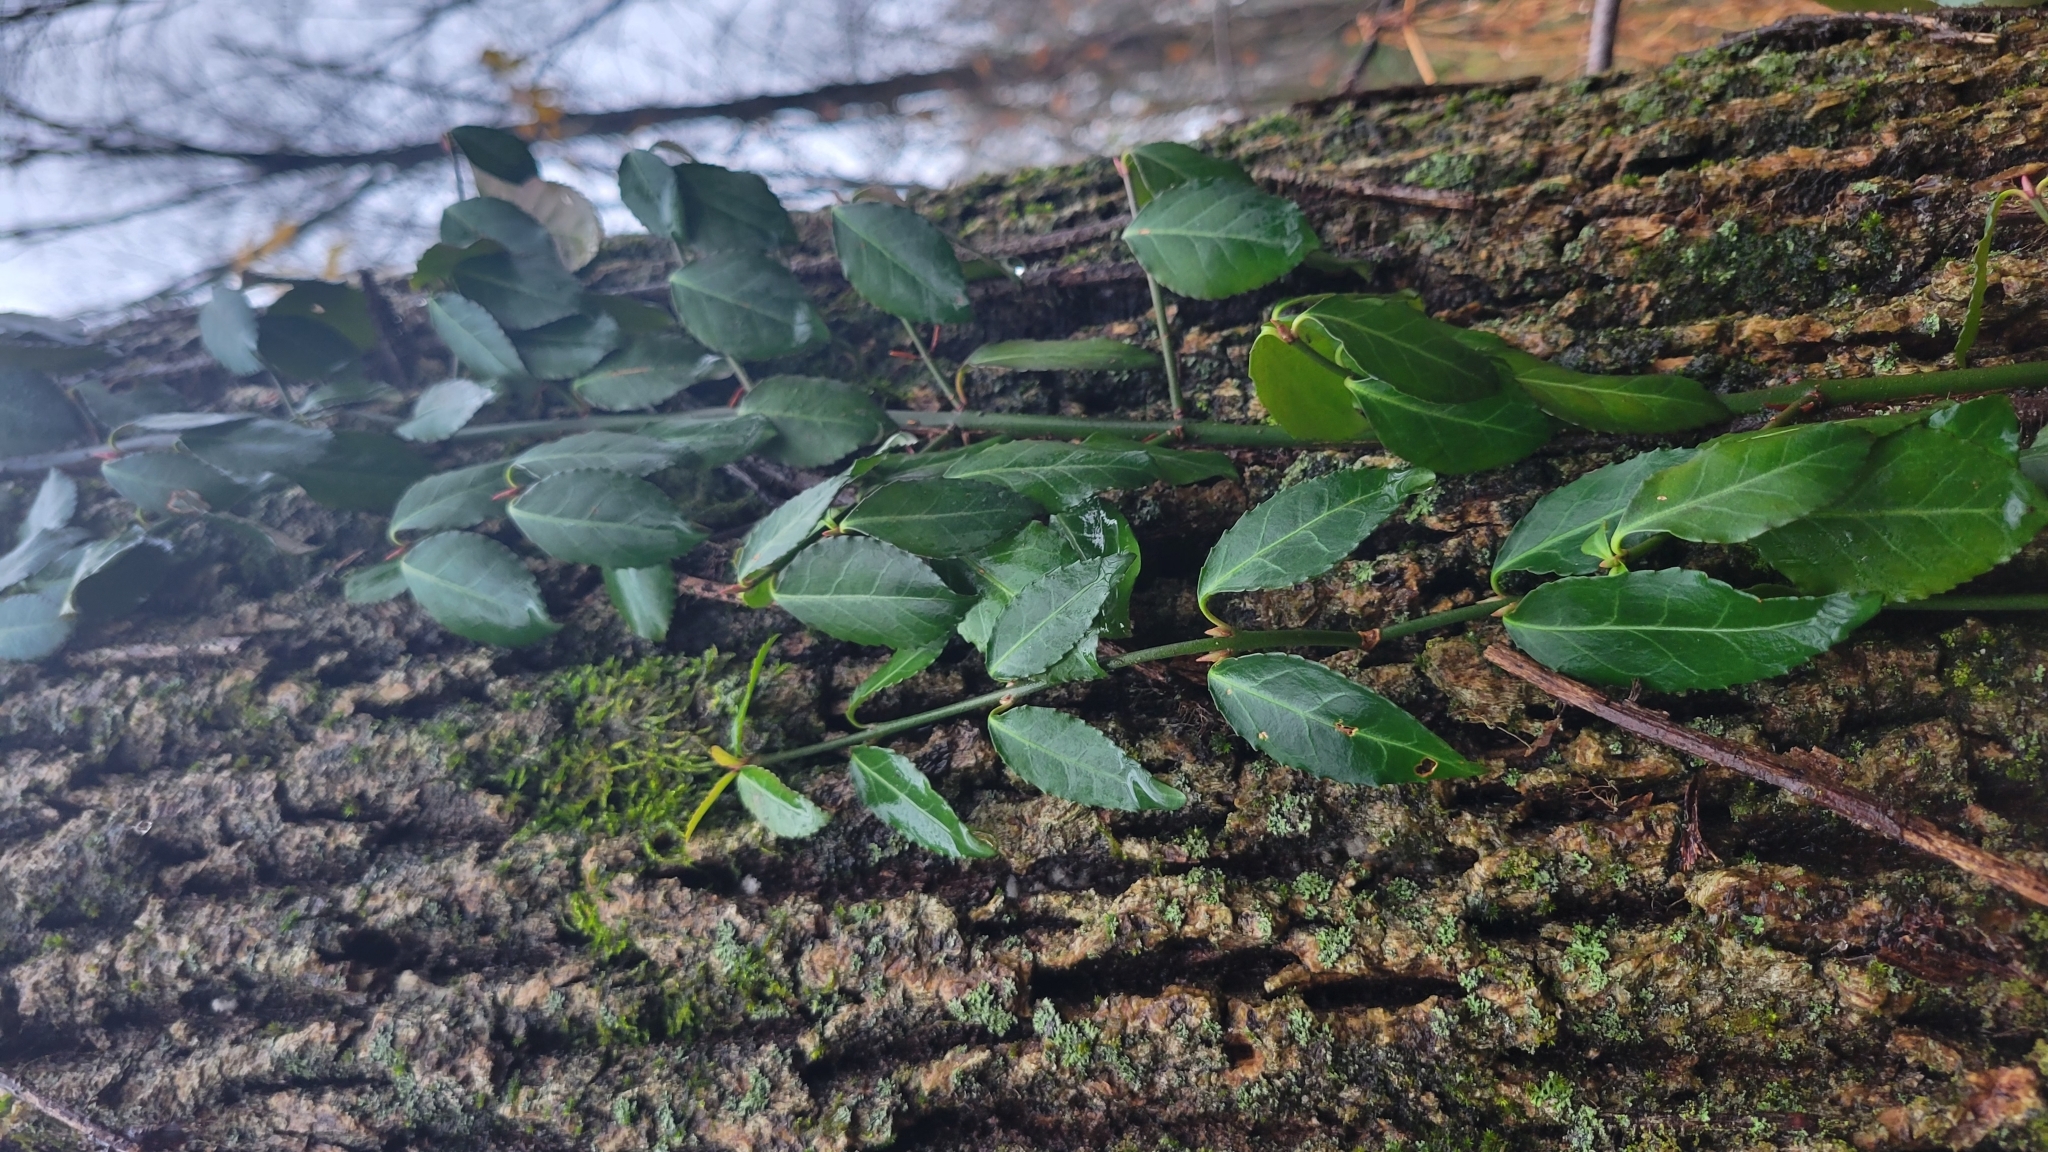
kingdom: Plantae
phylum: Tracheophyta
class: Magnoliopsida
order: Celastrales
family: Celastraceae
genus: Euonymus
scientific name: Euonymus fortunei
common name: Climbing euonymus
